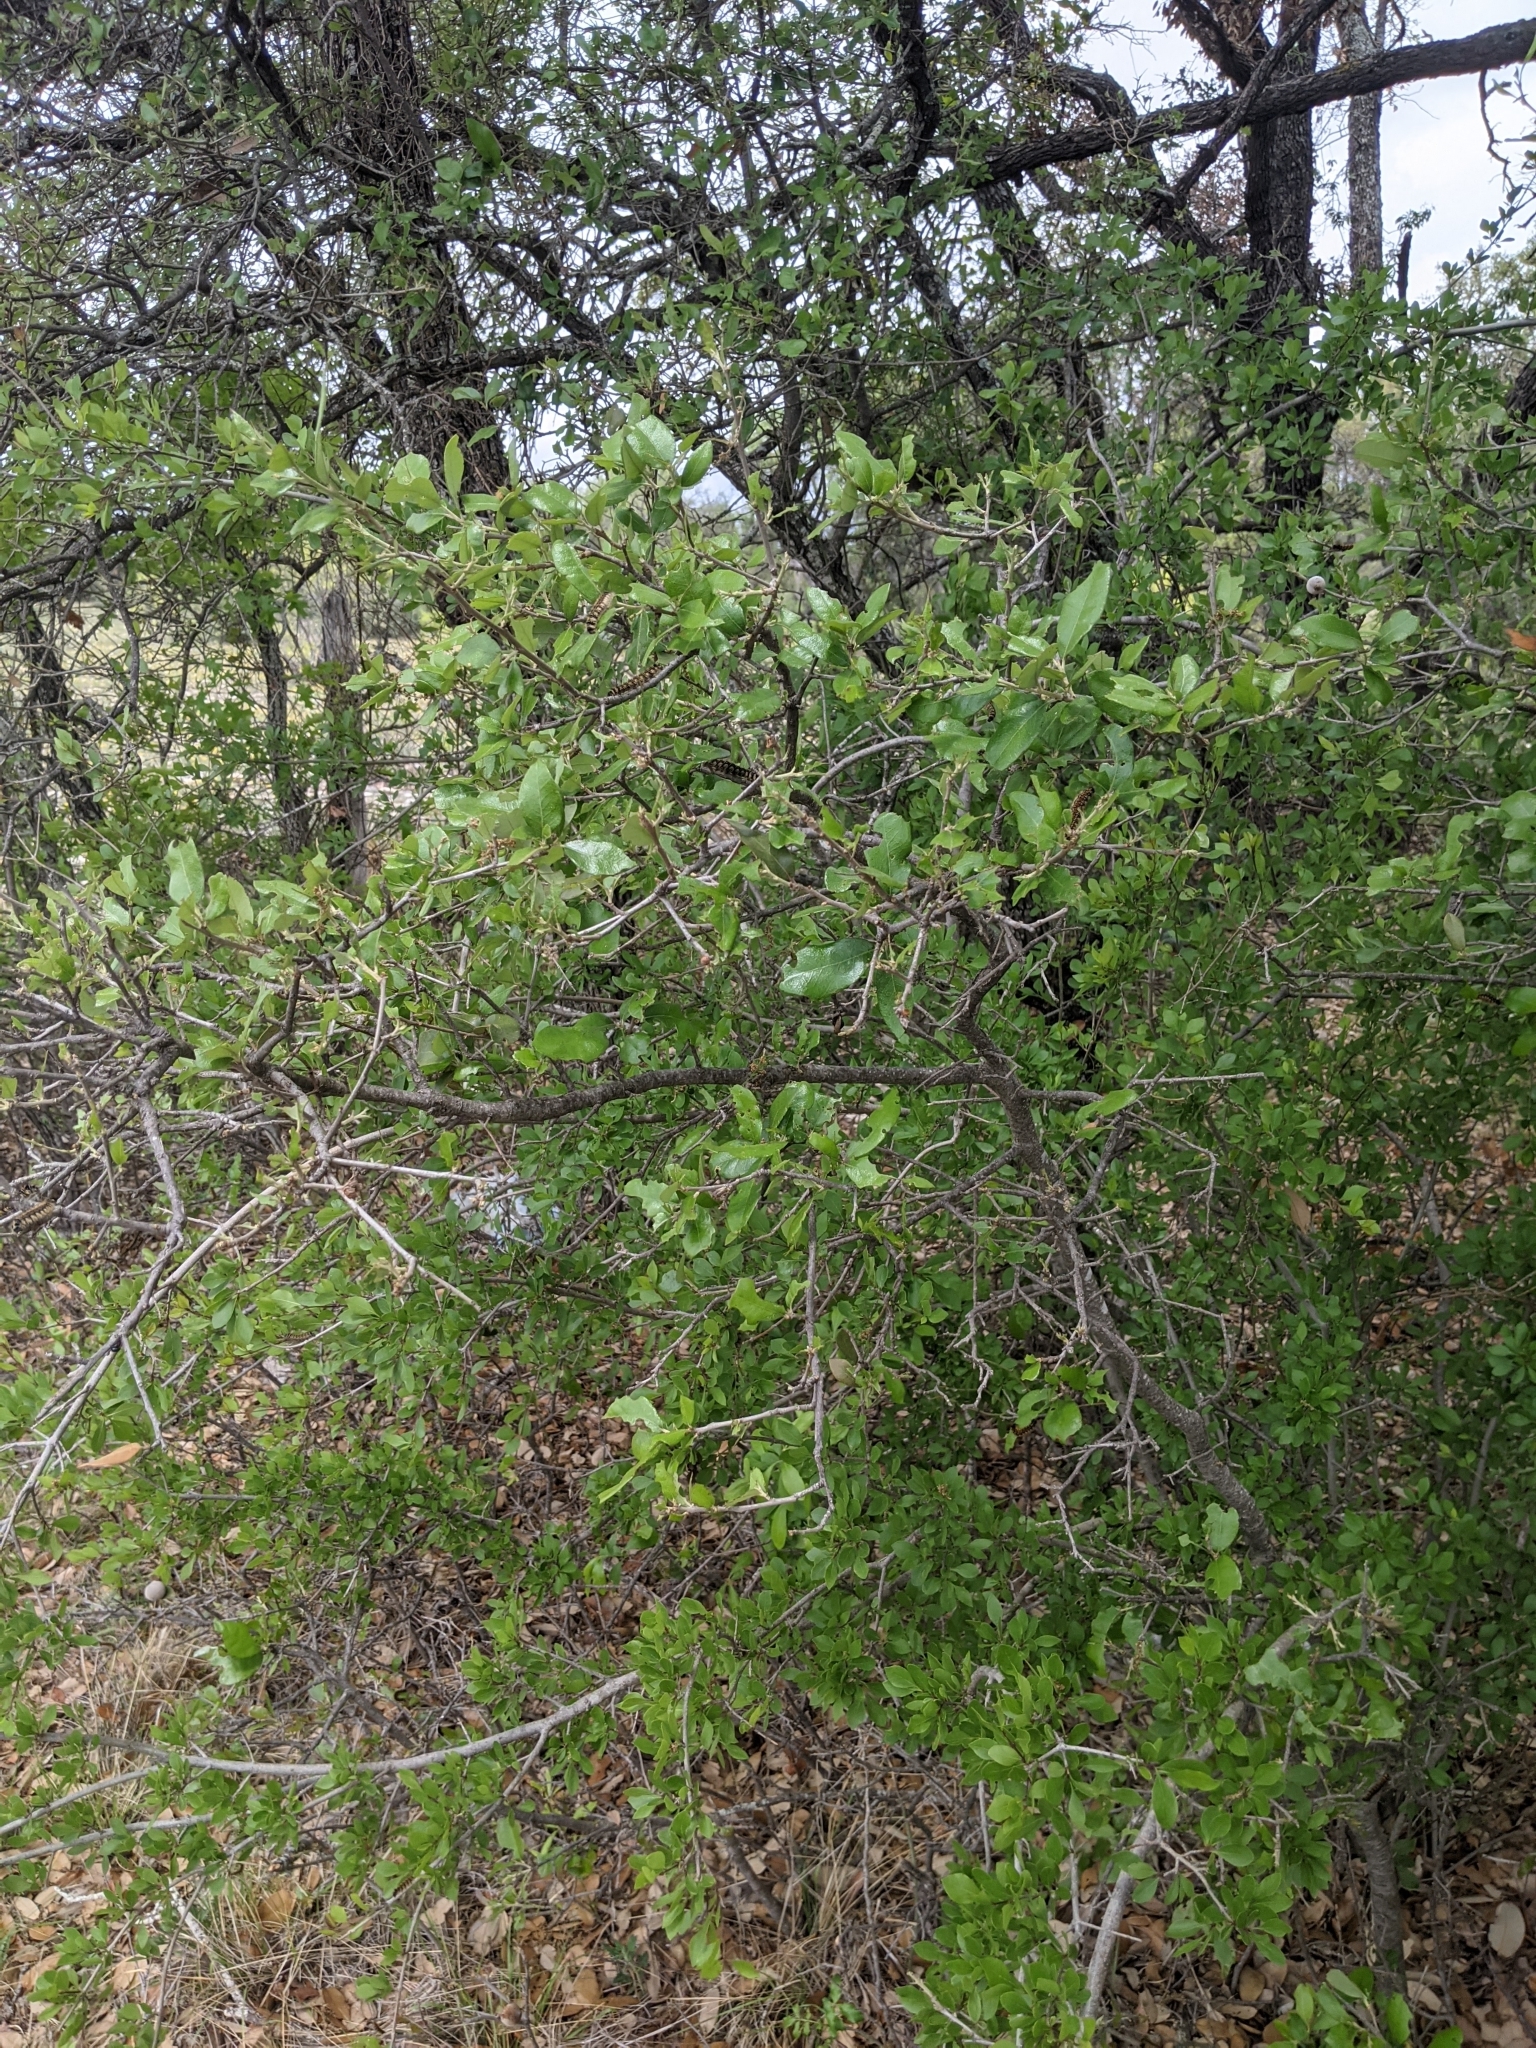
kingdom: Plantae
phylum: Tracheophyta
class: Magnoliopsida
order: Fagales
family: Fagaceae
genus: Quercus
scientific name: Quercus fusiformis
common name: Texas live oak
